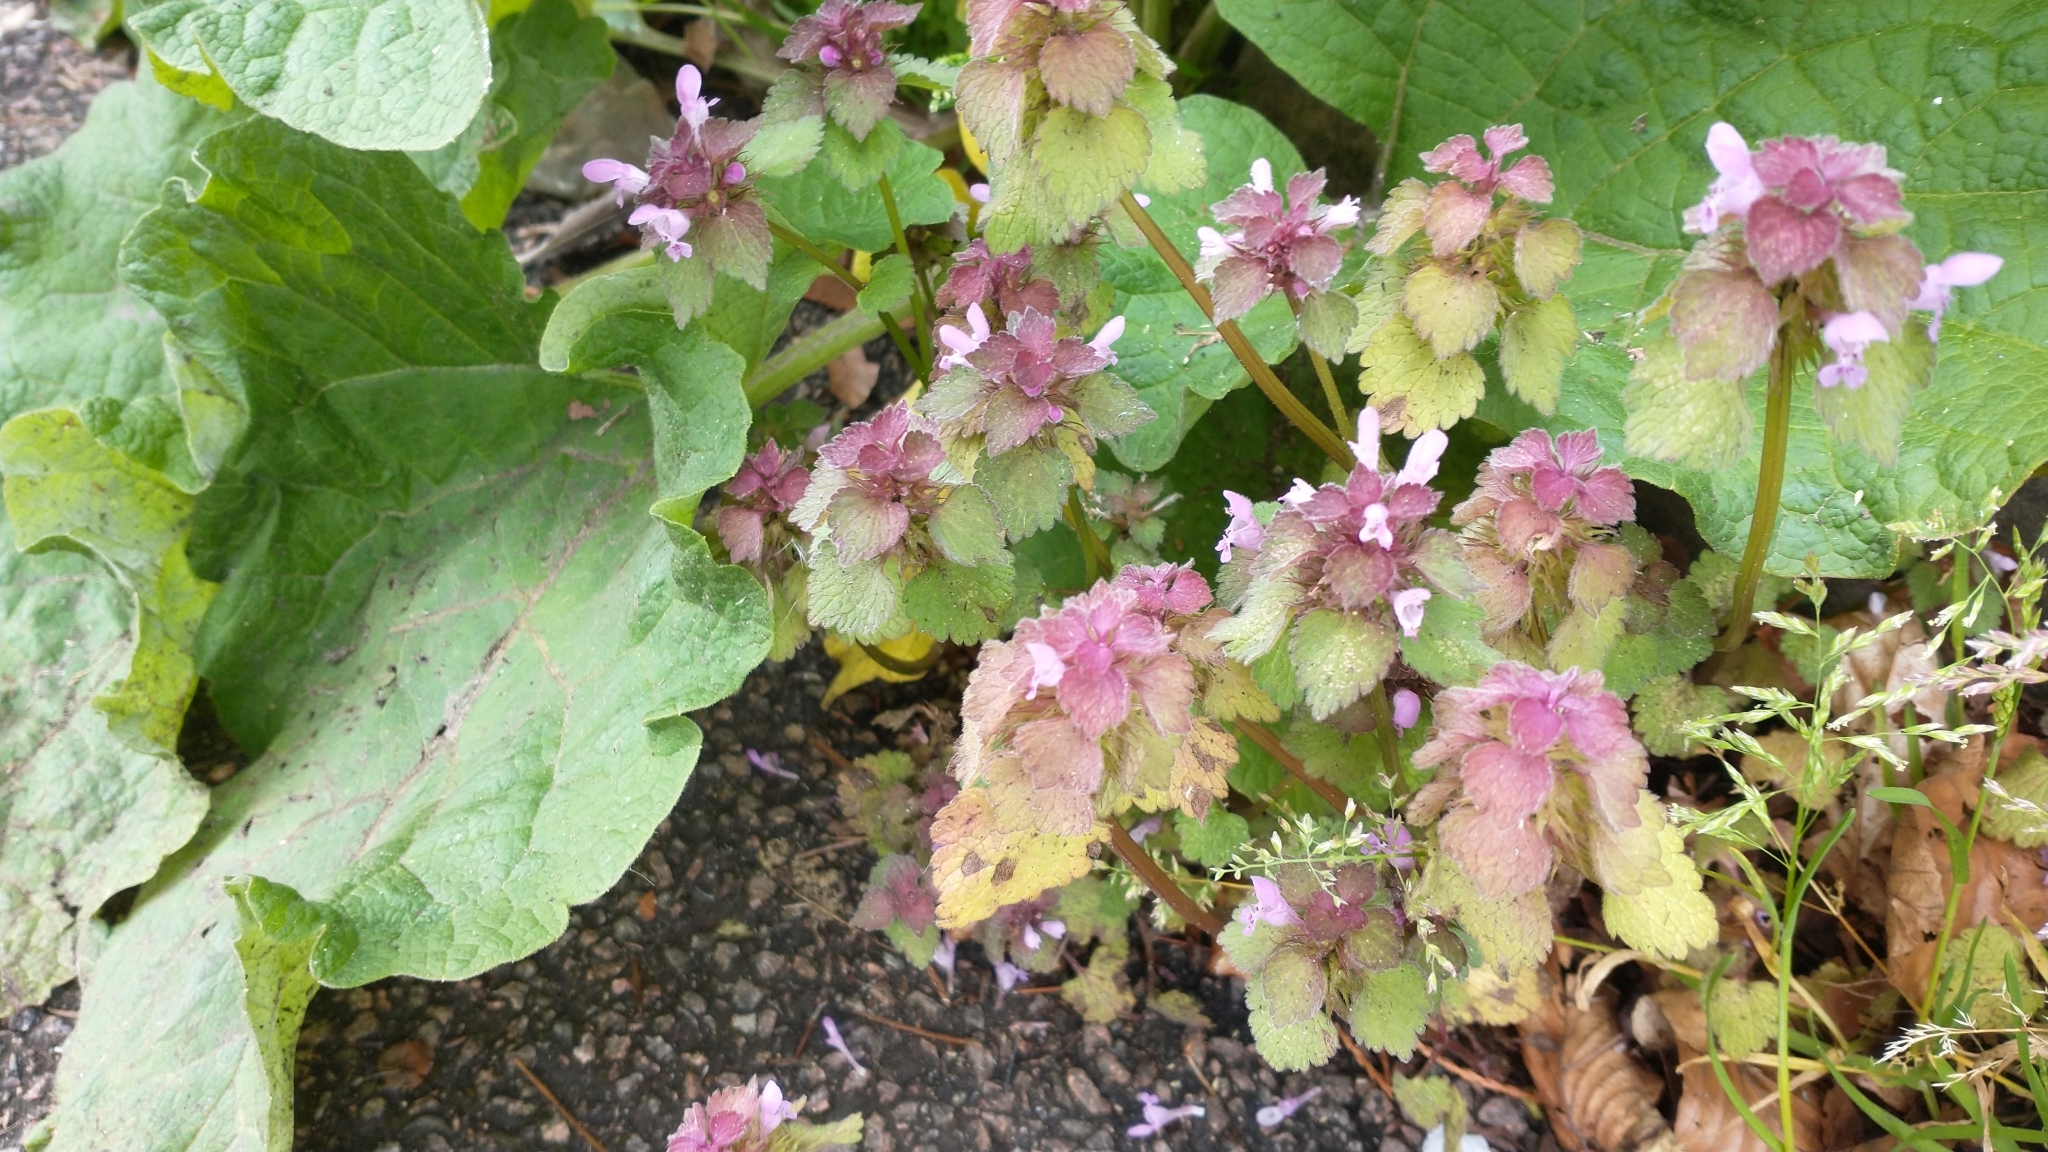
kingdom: Plantae
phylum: Tracheophyta
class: Magnoliopsida
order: Lamiales
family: Lamiaceae
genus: Lamium
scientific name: Lamium purpureum
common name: Red dead-nettle
